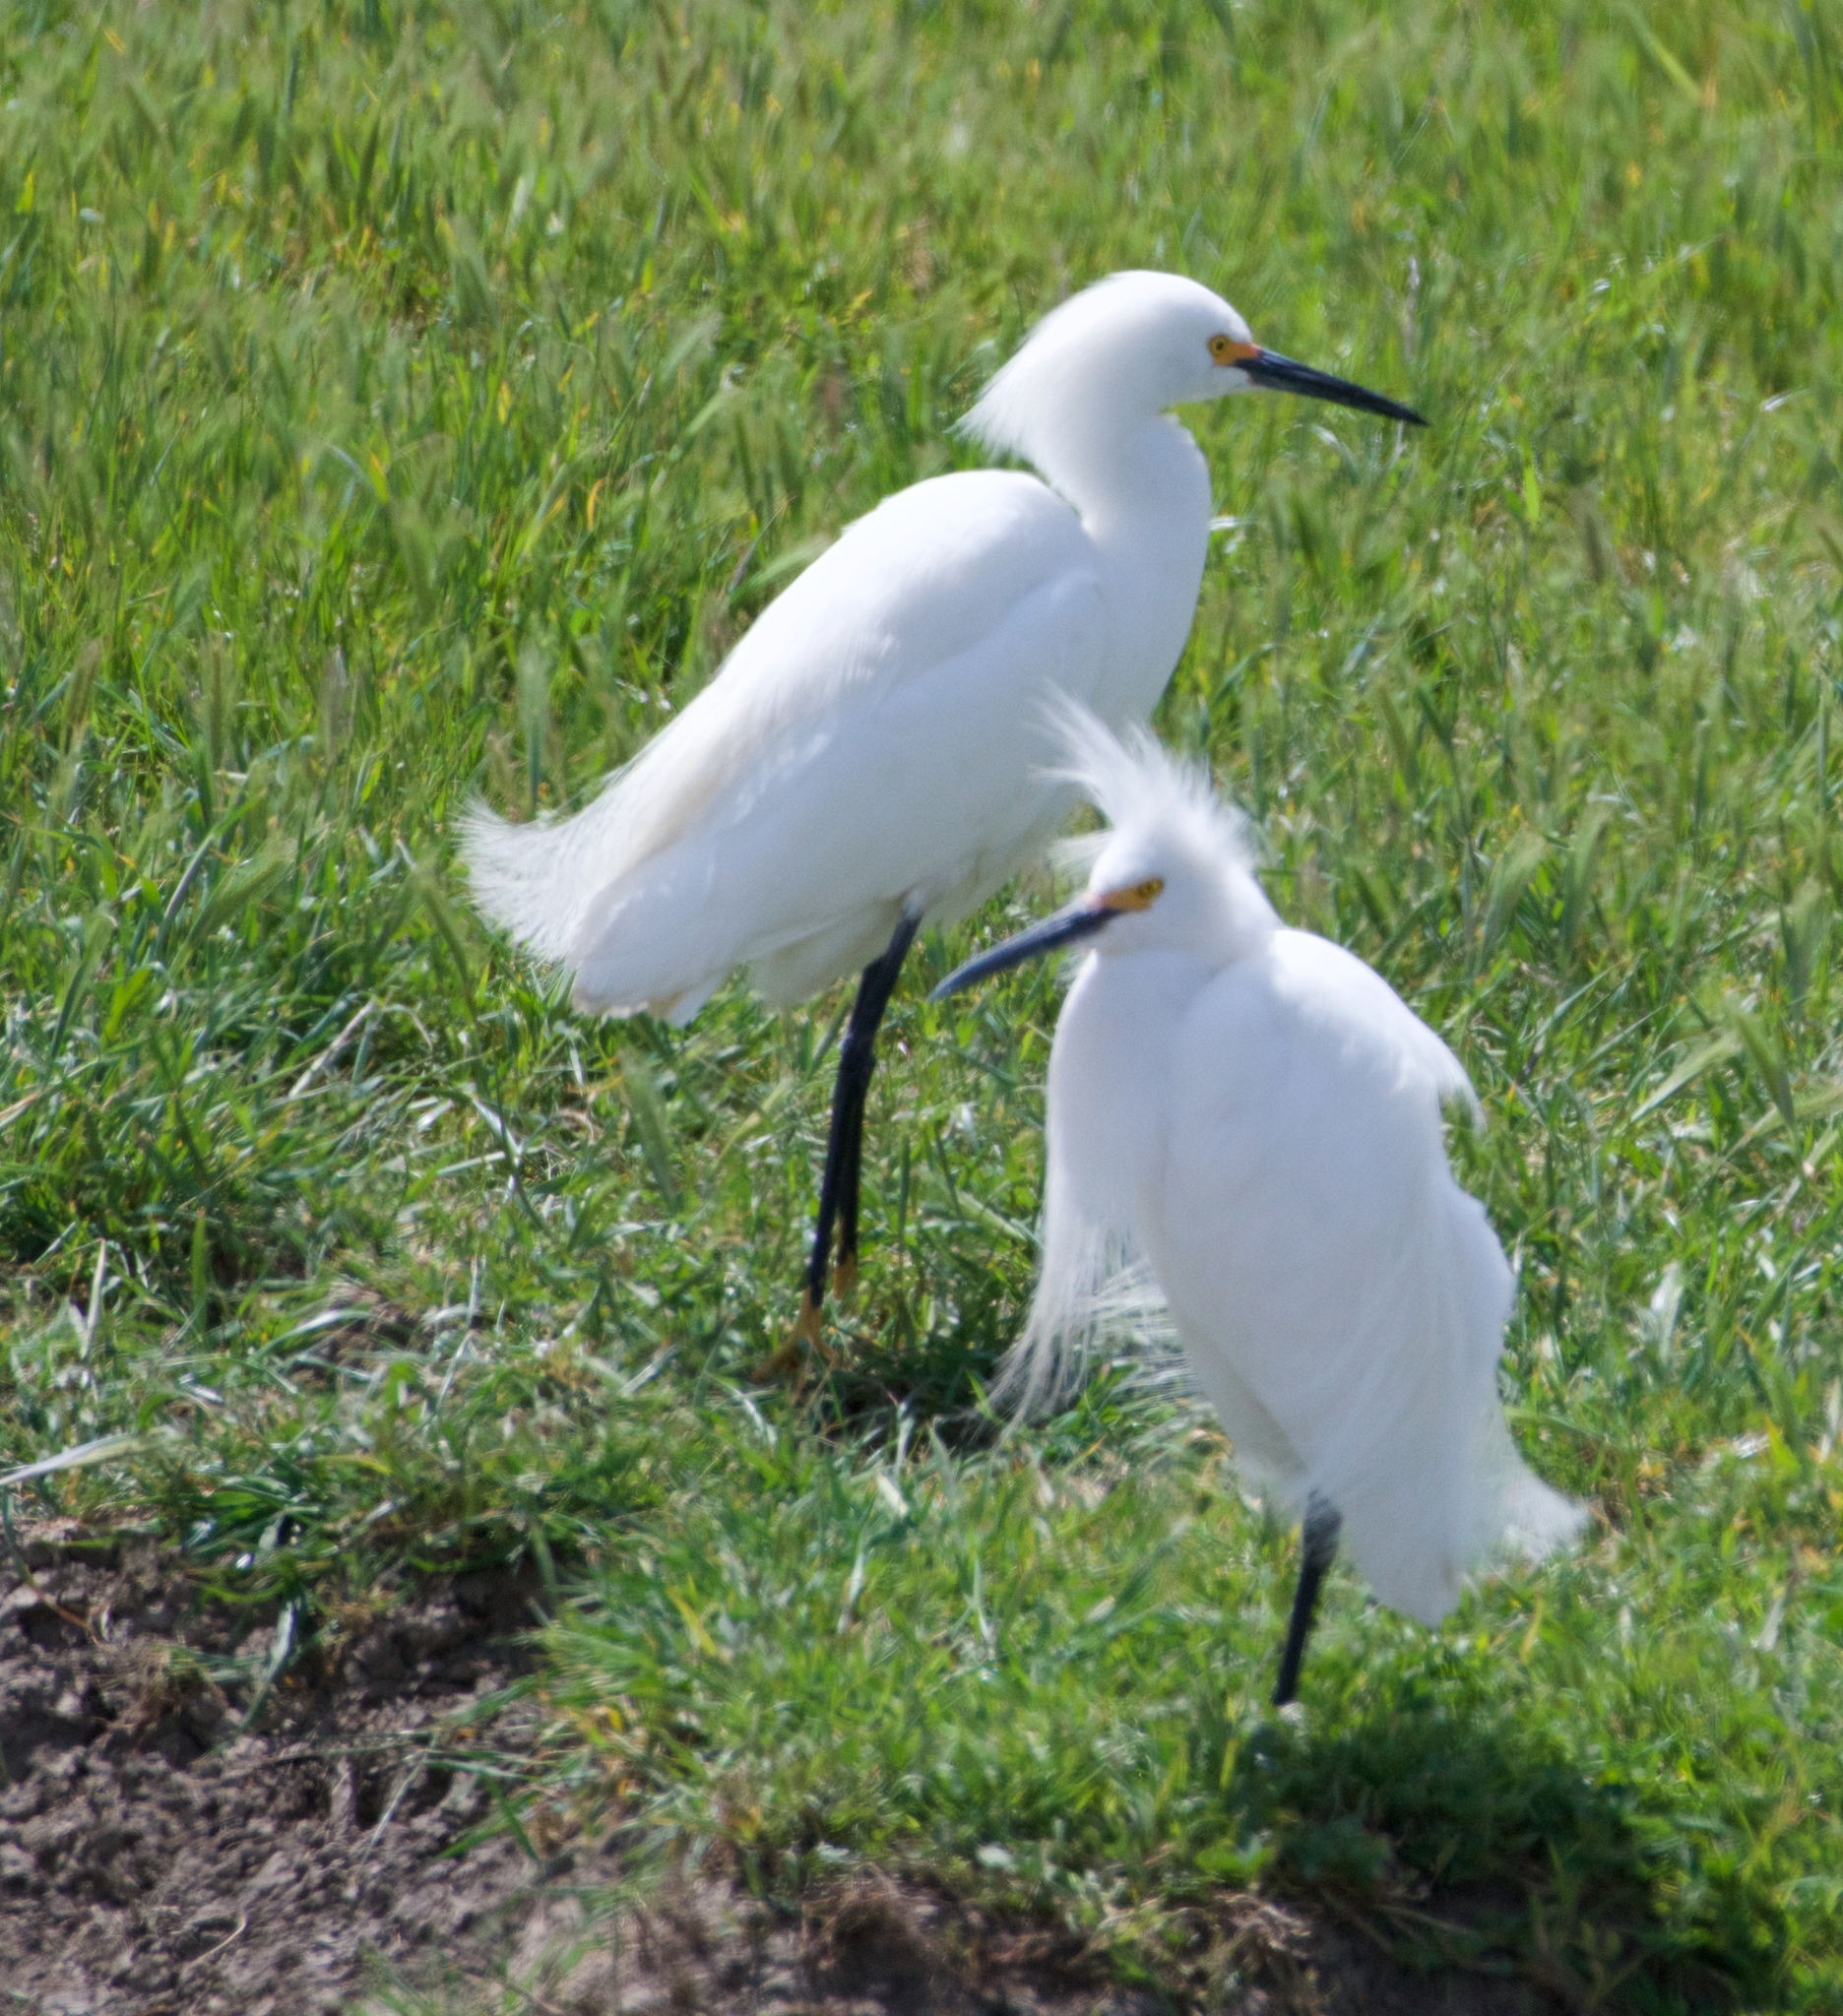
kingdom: Animalia
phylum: Chordata
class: Aves
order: Pelecaniformes
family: Ardeidae
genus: Egretta
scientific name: Egretta thula
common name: Snowy egret
